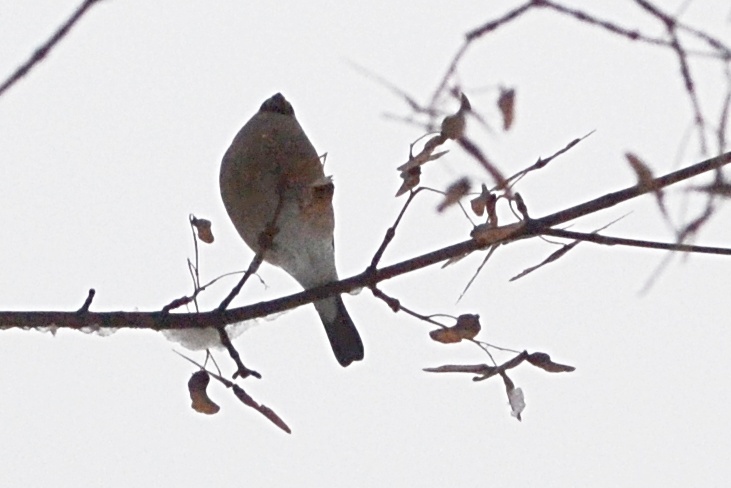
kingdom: Animalia
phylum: Chordata
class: Aves
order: Passeriformes
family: Fringillidae
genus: Pyrrhula
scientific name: Pyrrhula pyrrhula
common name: Eurasian bullfinch
